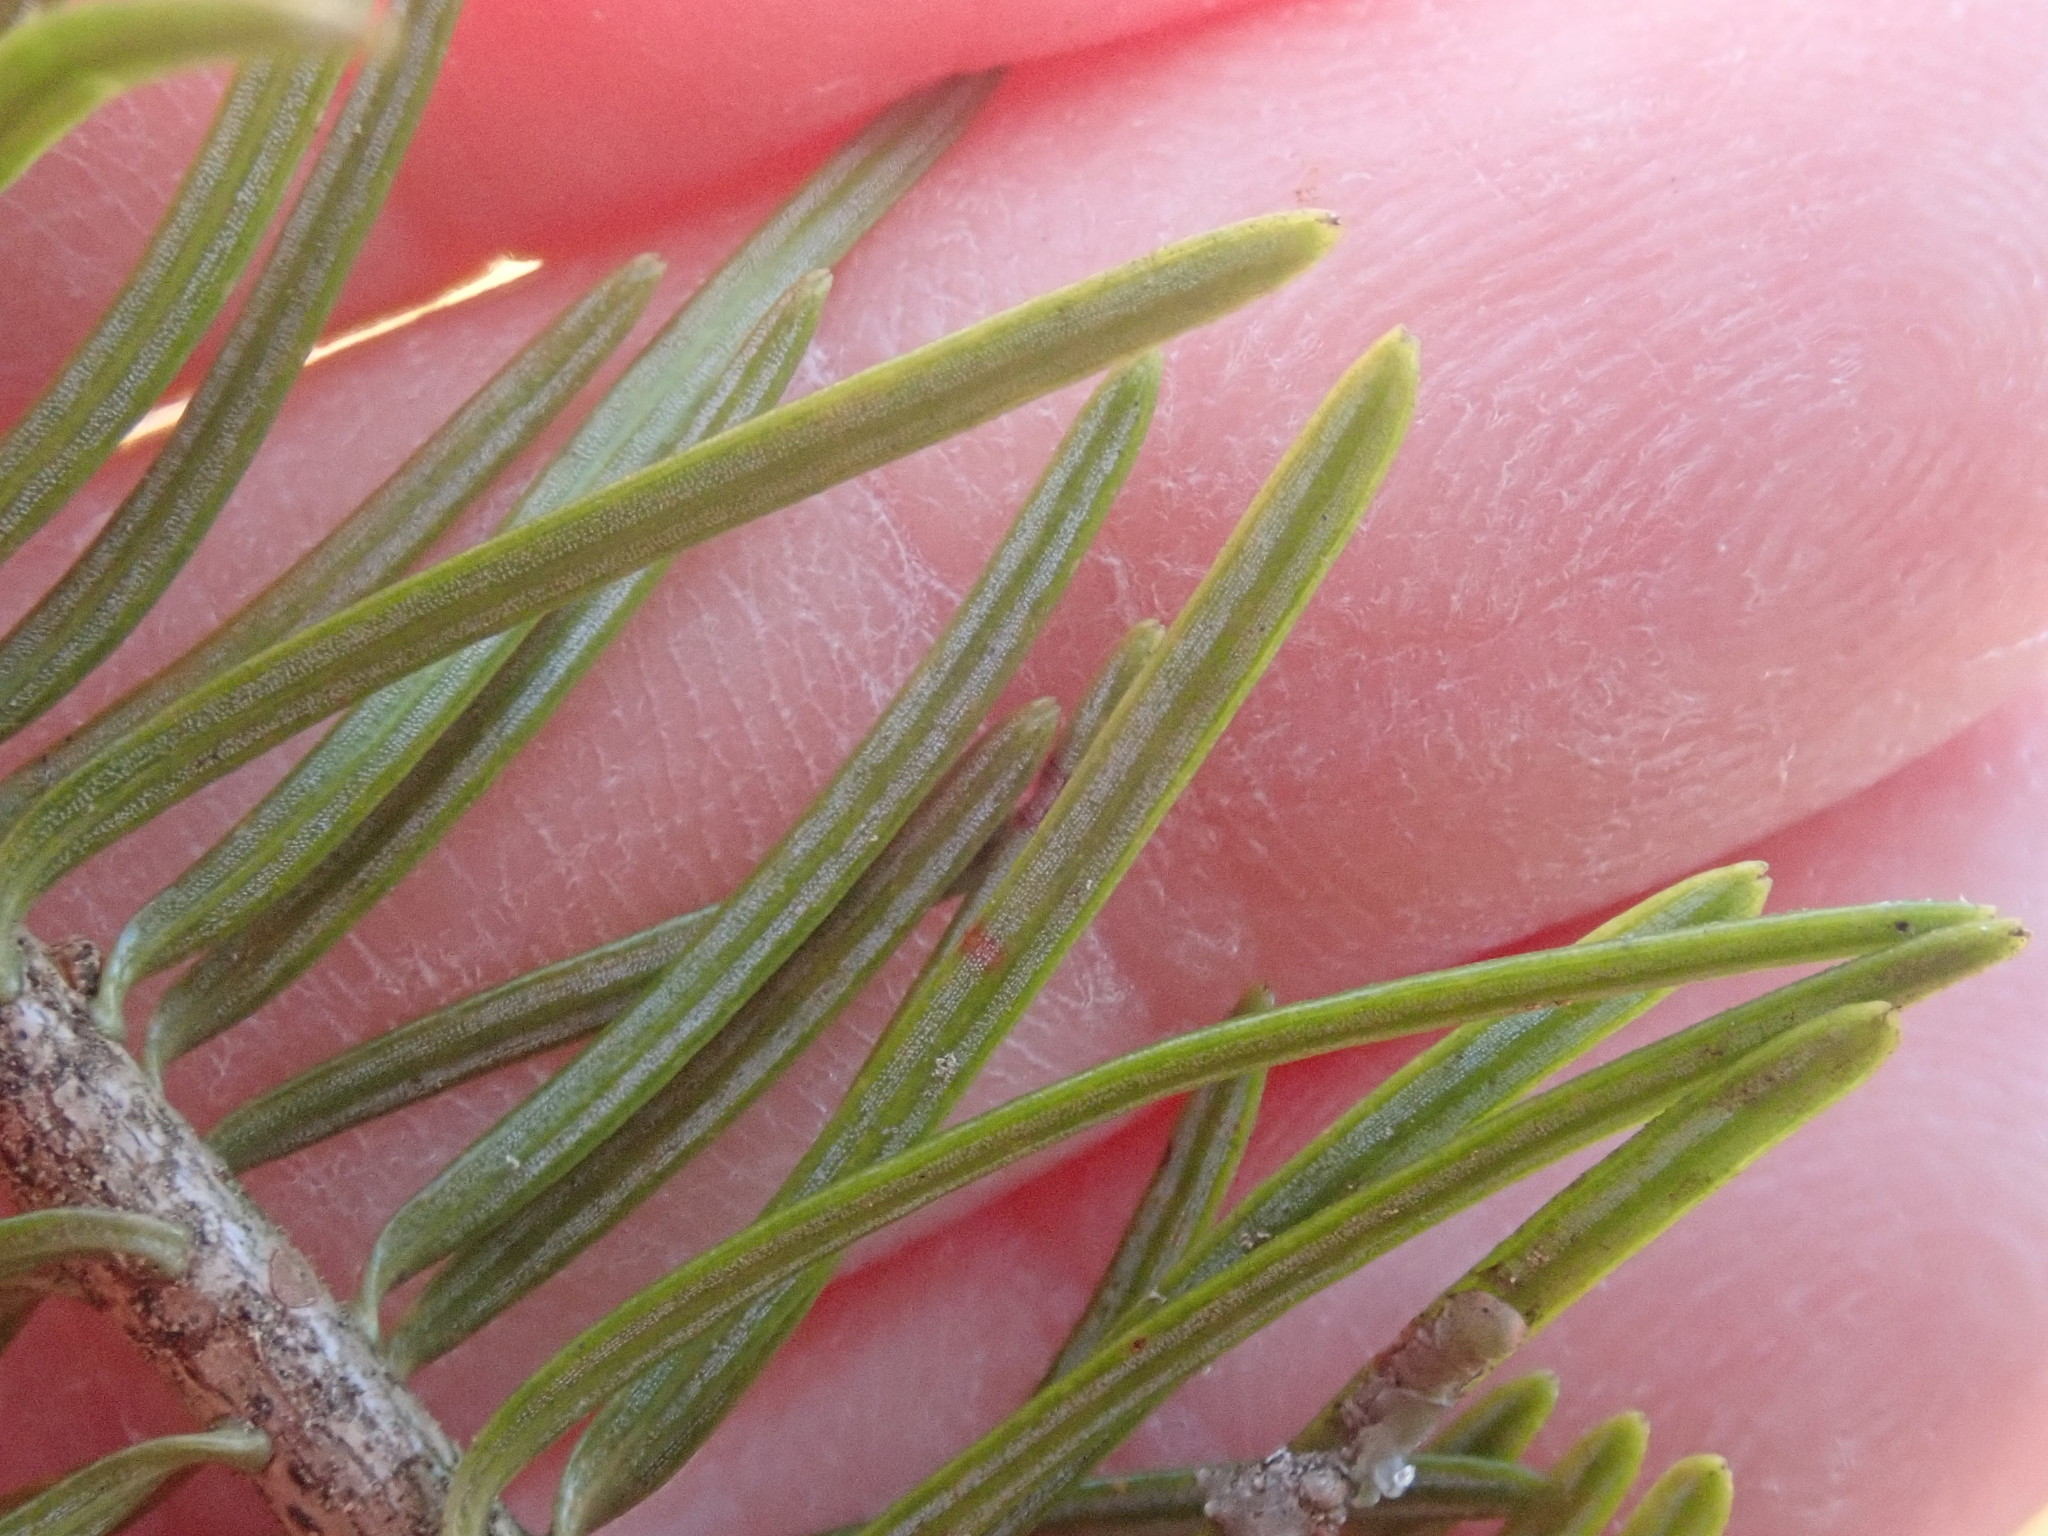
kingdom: Plantae
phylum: Tracheophyta
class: Pinopsida
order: Pinales
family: Pinaceae
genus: Abies
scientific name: Abies balsamea
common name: Balsam fir
